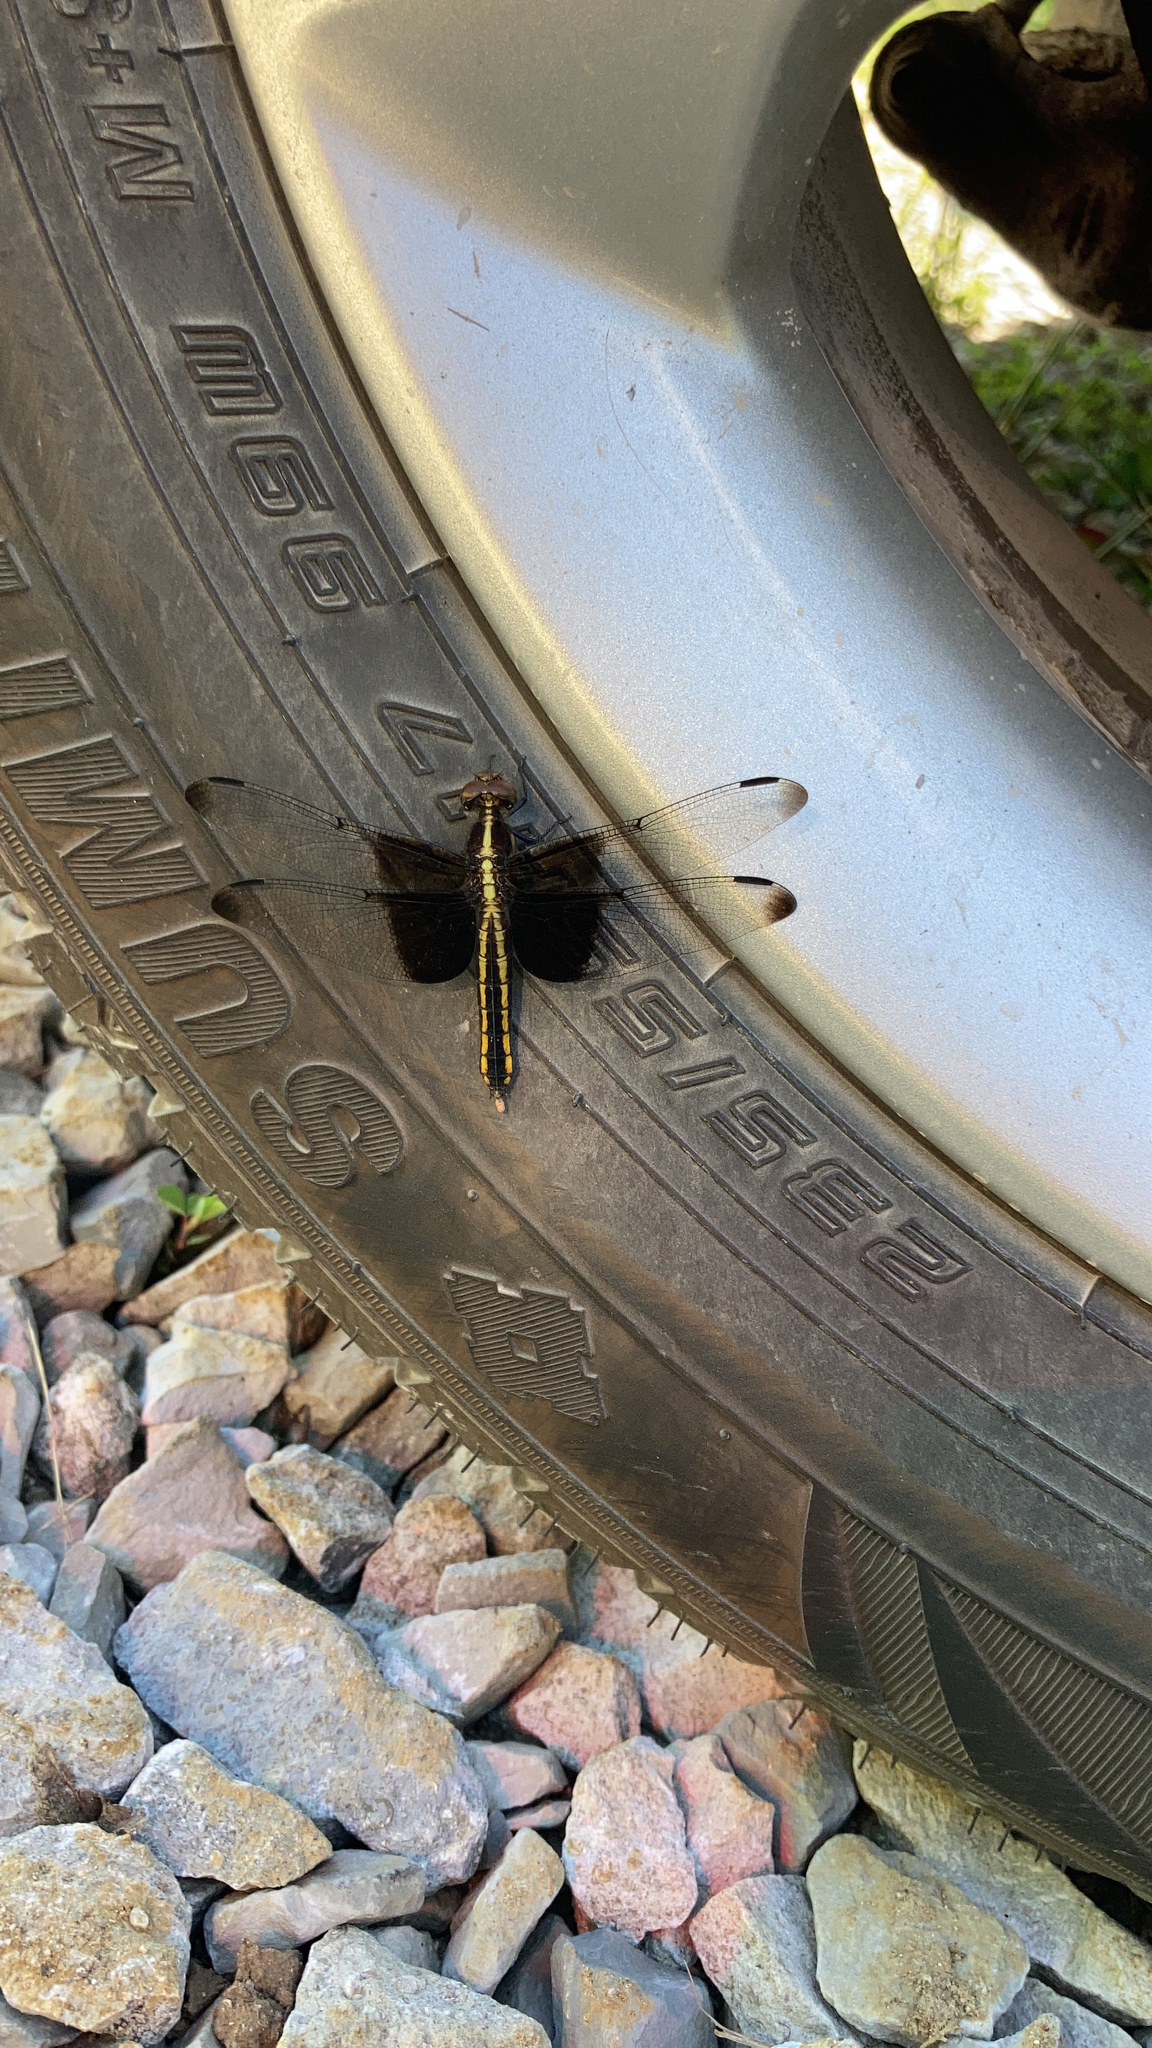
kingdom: Animalia
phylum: Arthropoda
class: Insecta
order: Odonata
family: Libellulidae
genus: Libellula
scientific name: Libellula luctuosa
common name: Widow skimmer
